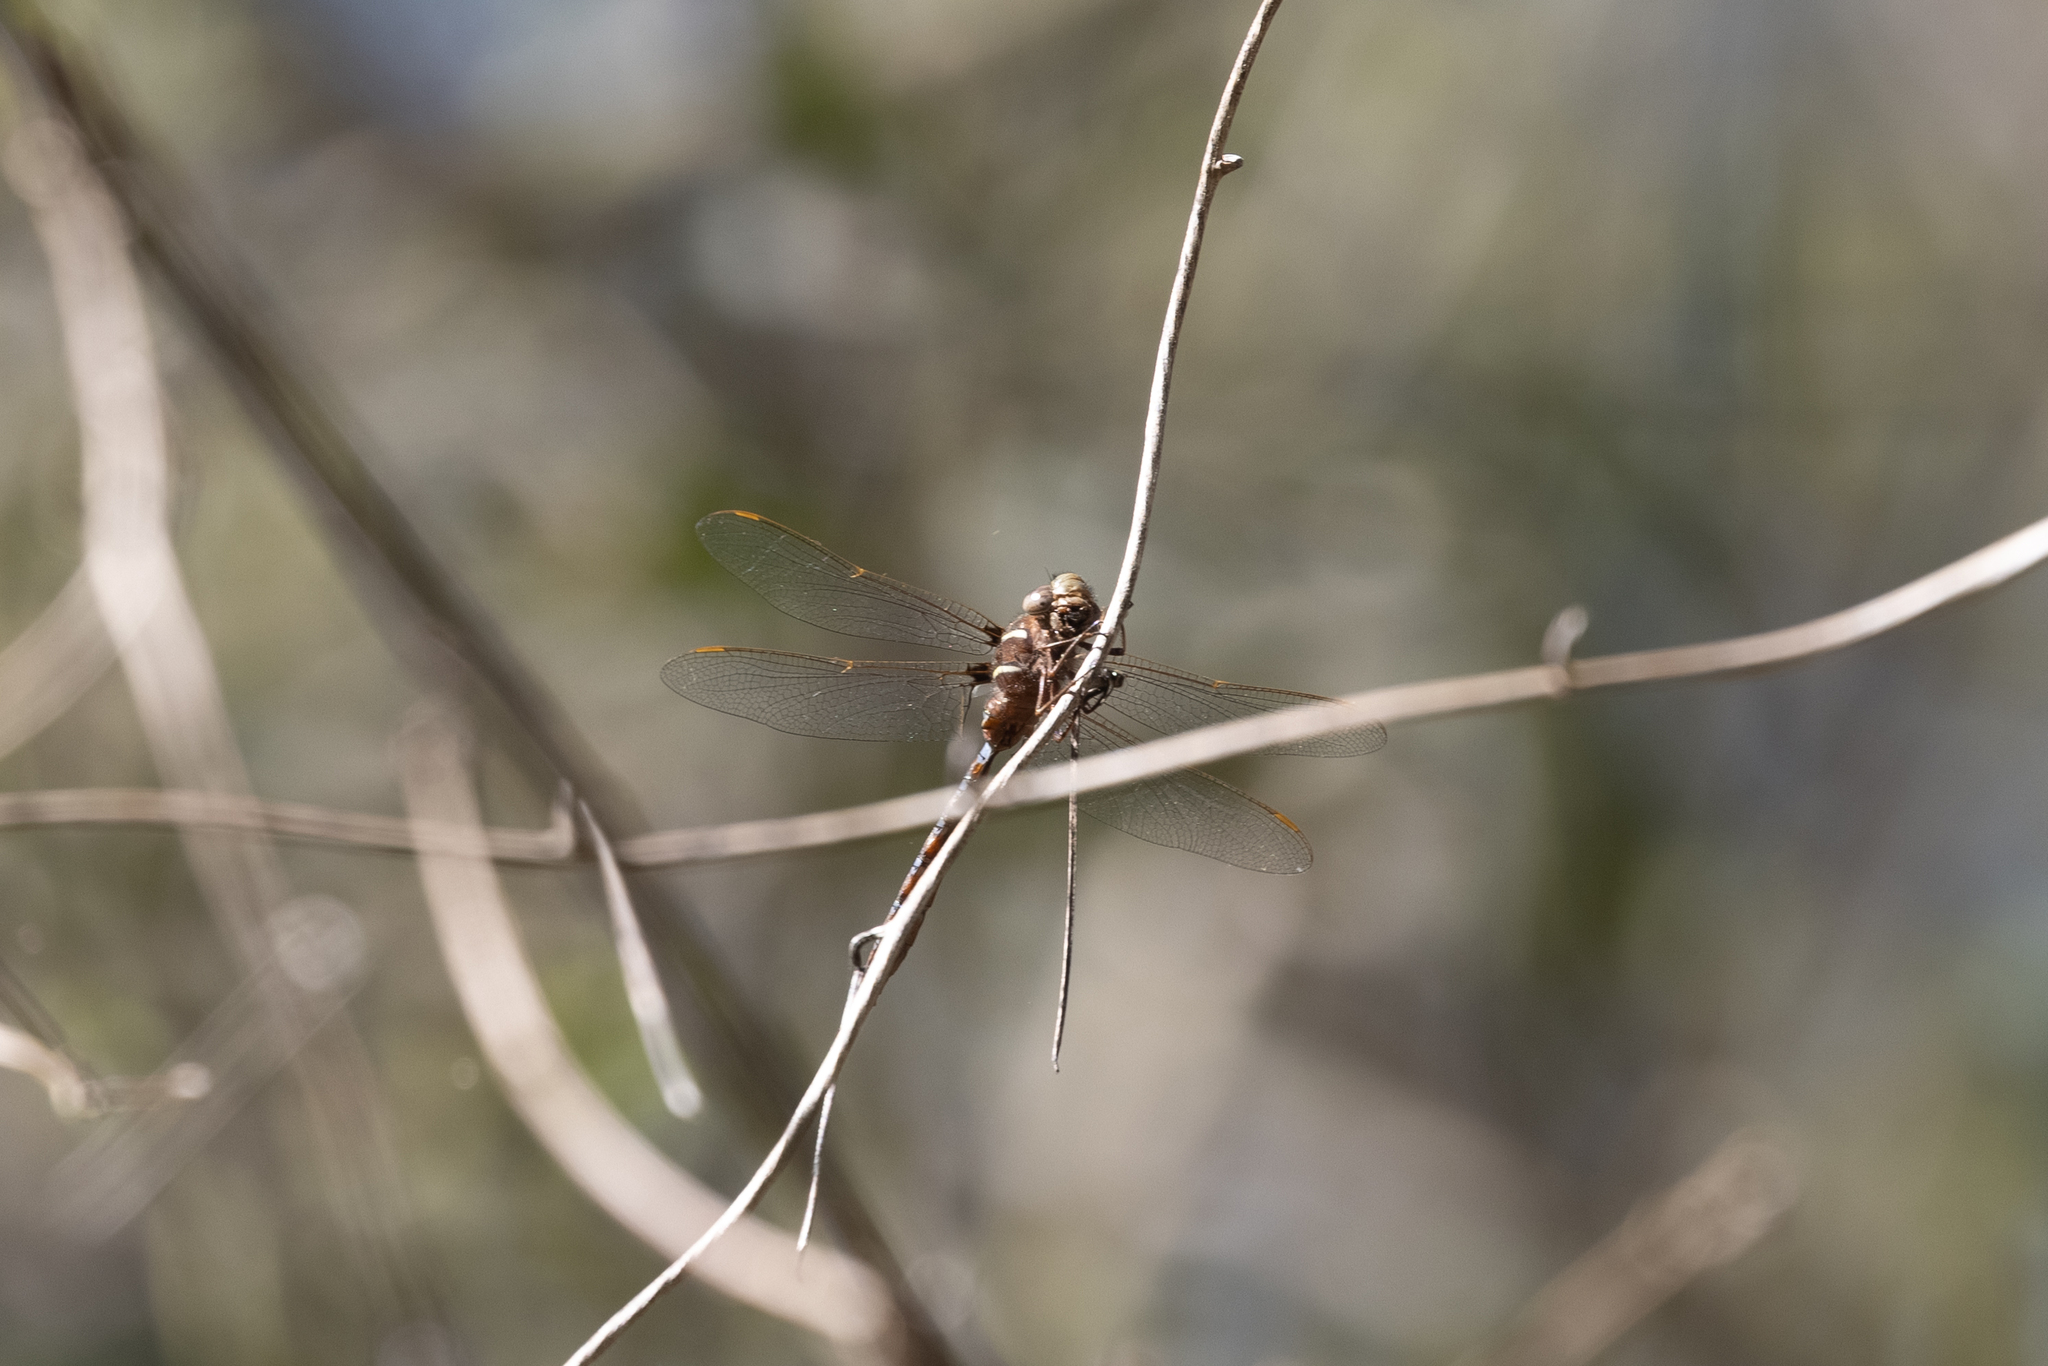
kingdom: Animalia
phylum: Arthropoda
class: Insecta
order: Odonata
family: Aeshnidae
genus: Basiaeschna
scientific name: Basiaeschna janata
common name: Springtime darner
